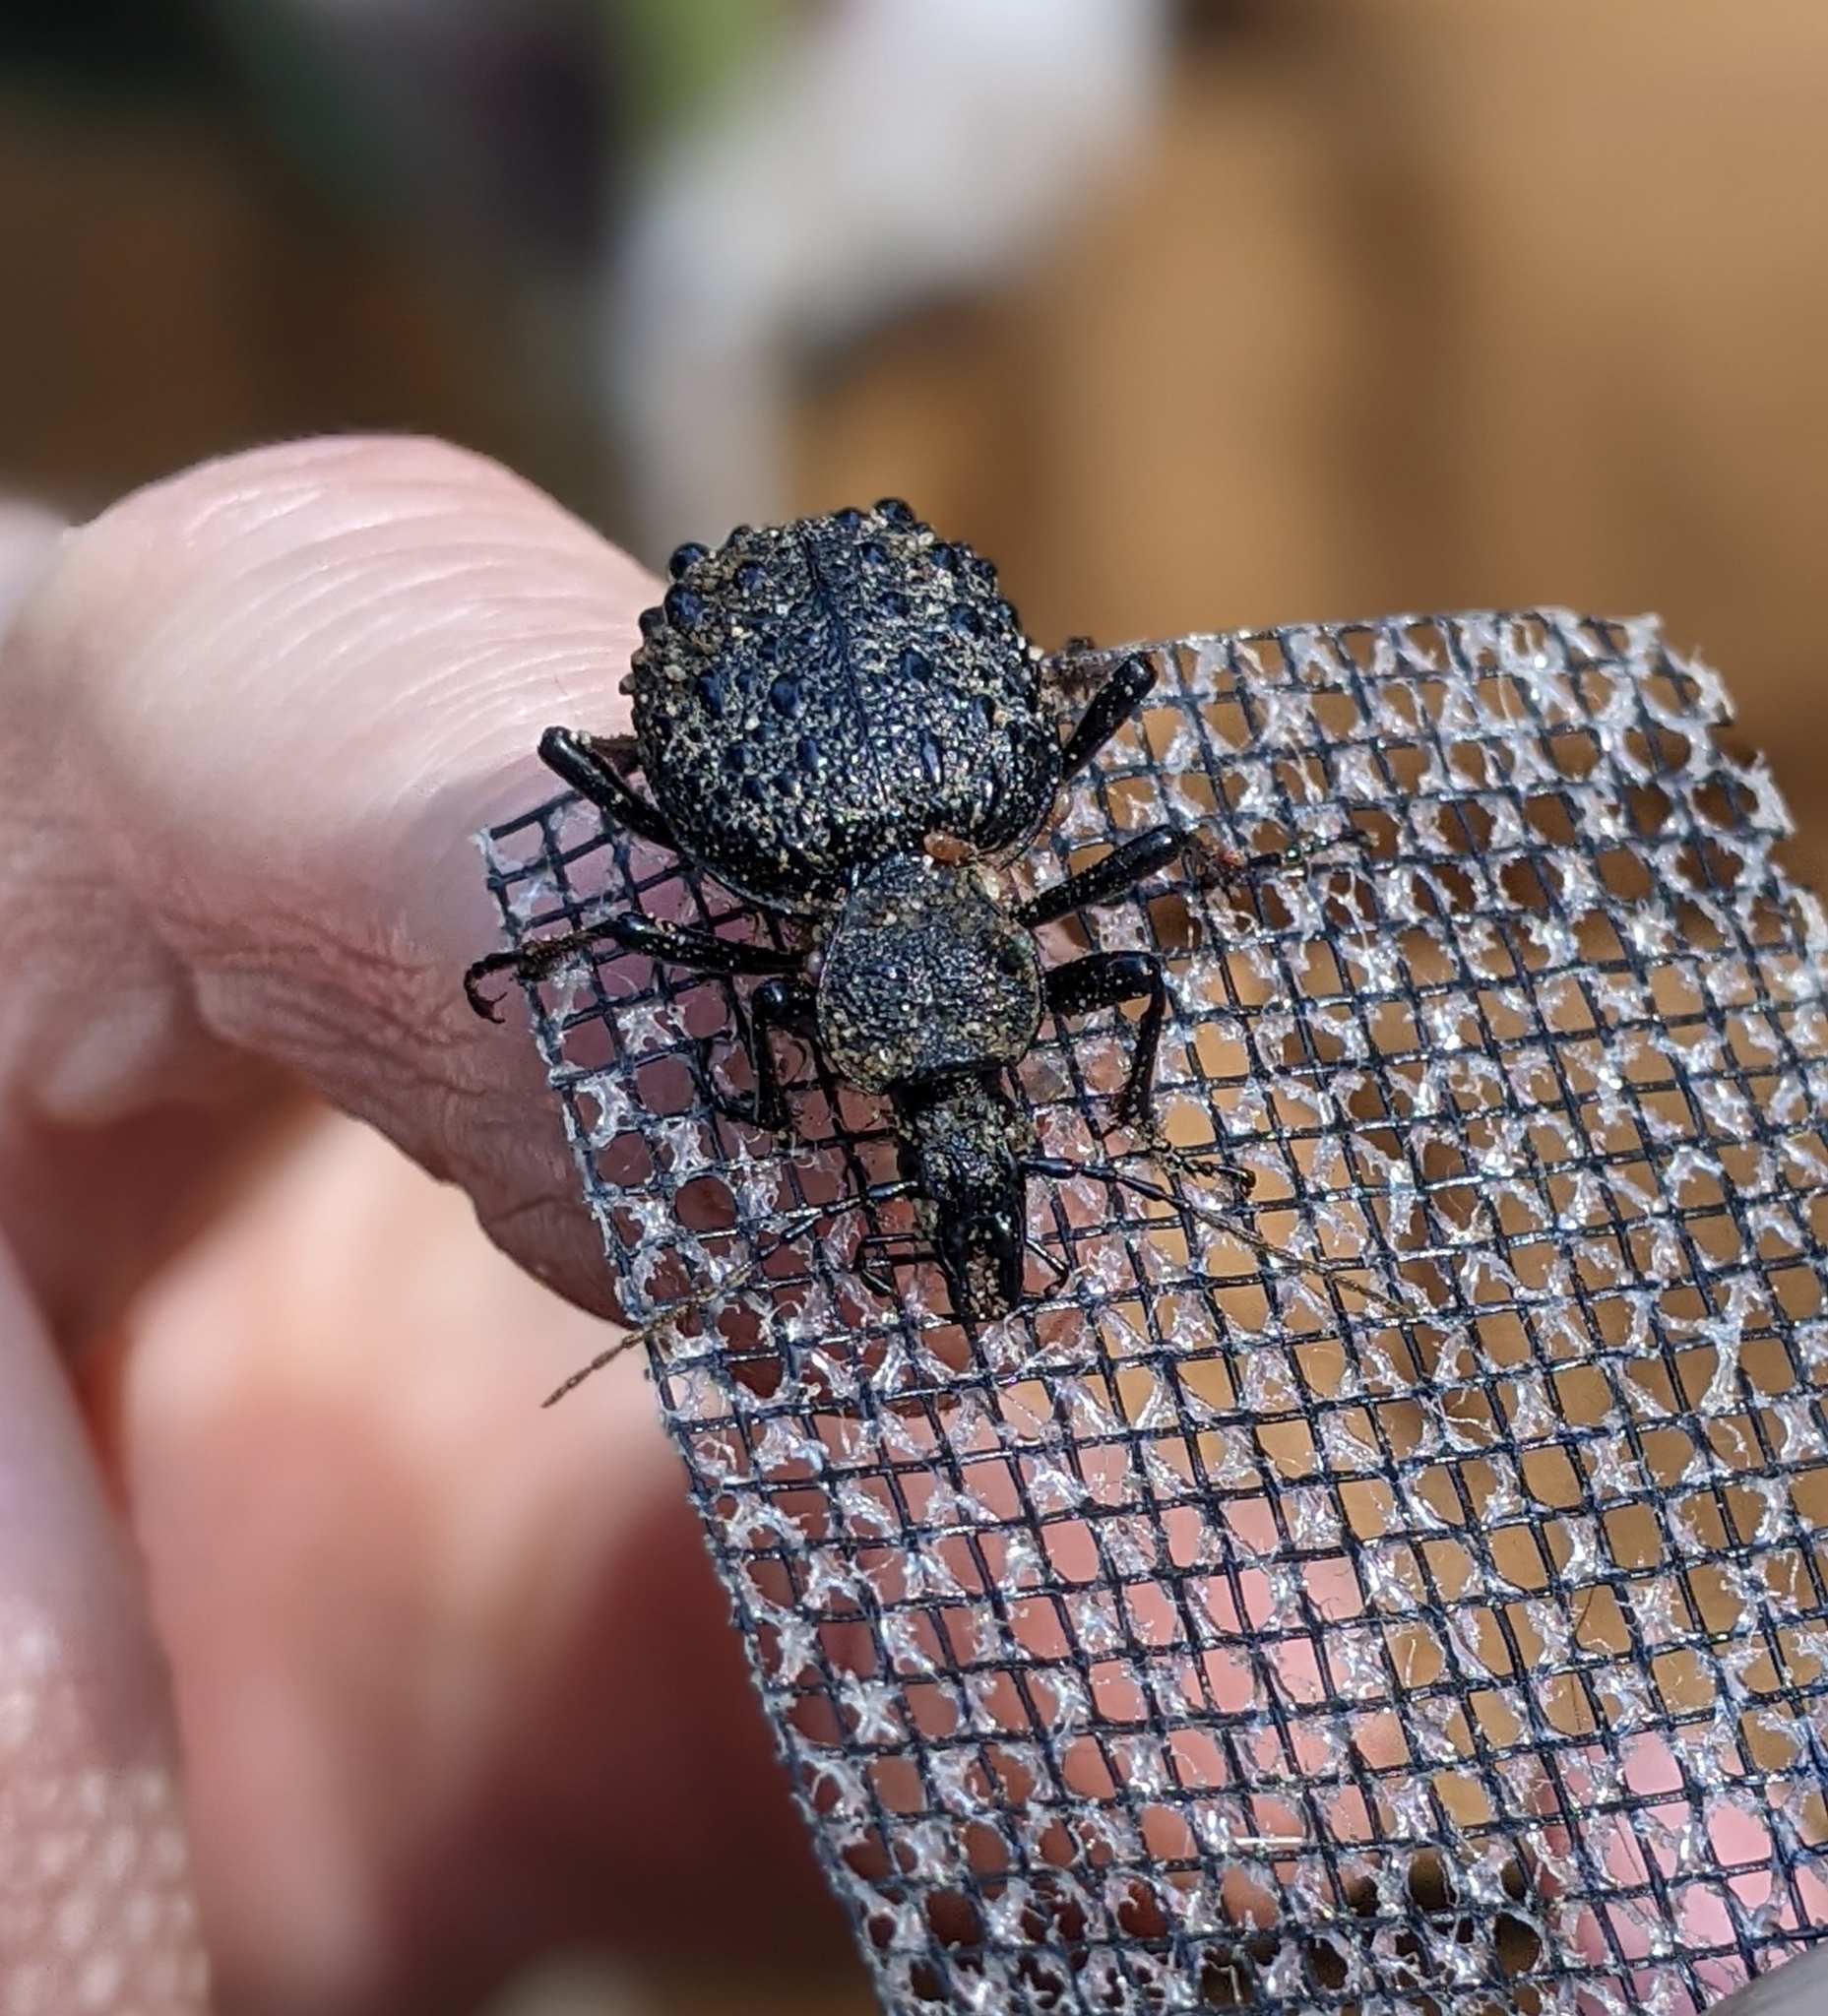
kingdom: Animalia
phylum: Arthropoda
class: Insecta
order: Coleoptera
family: Carabidae
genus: Cychrus
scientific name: Cychrus tuberculatus
